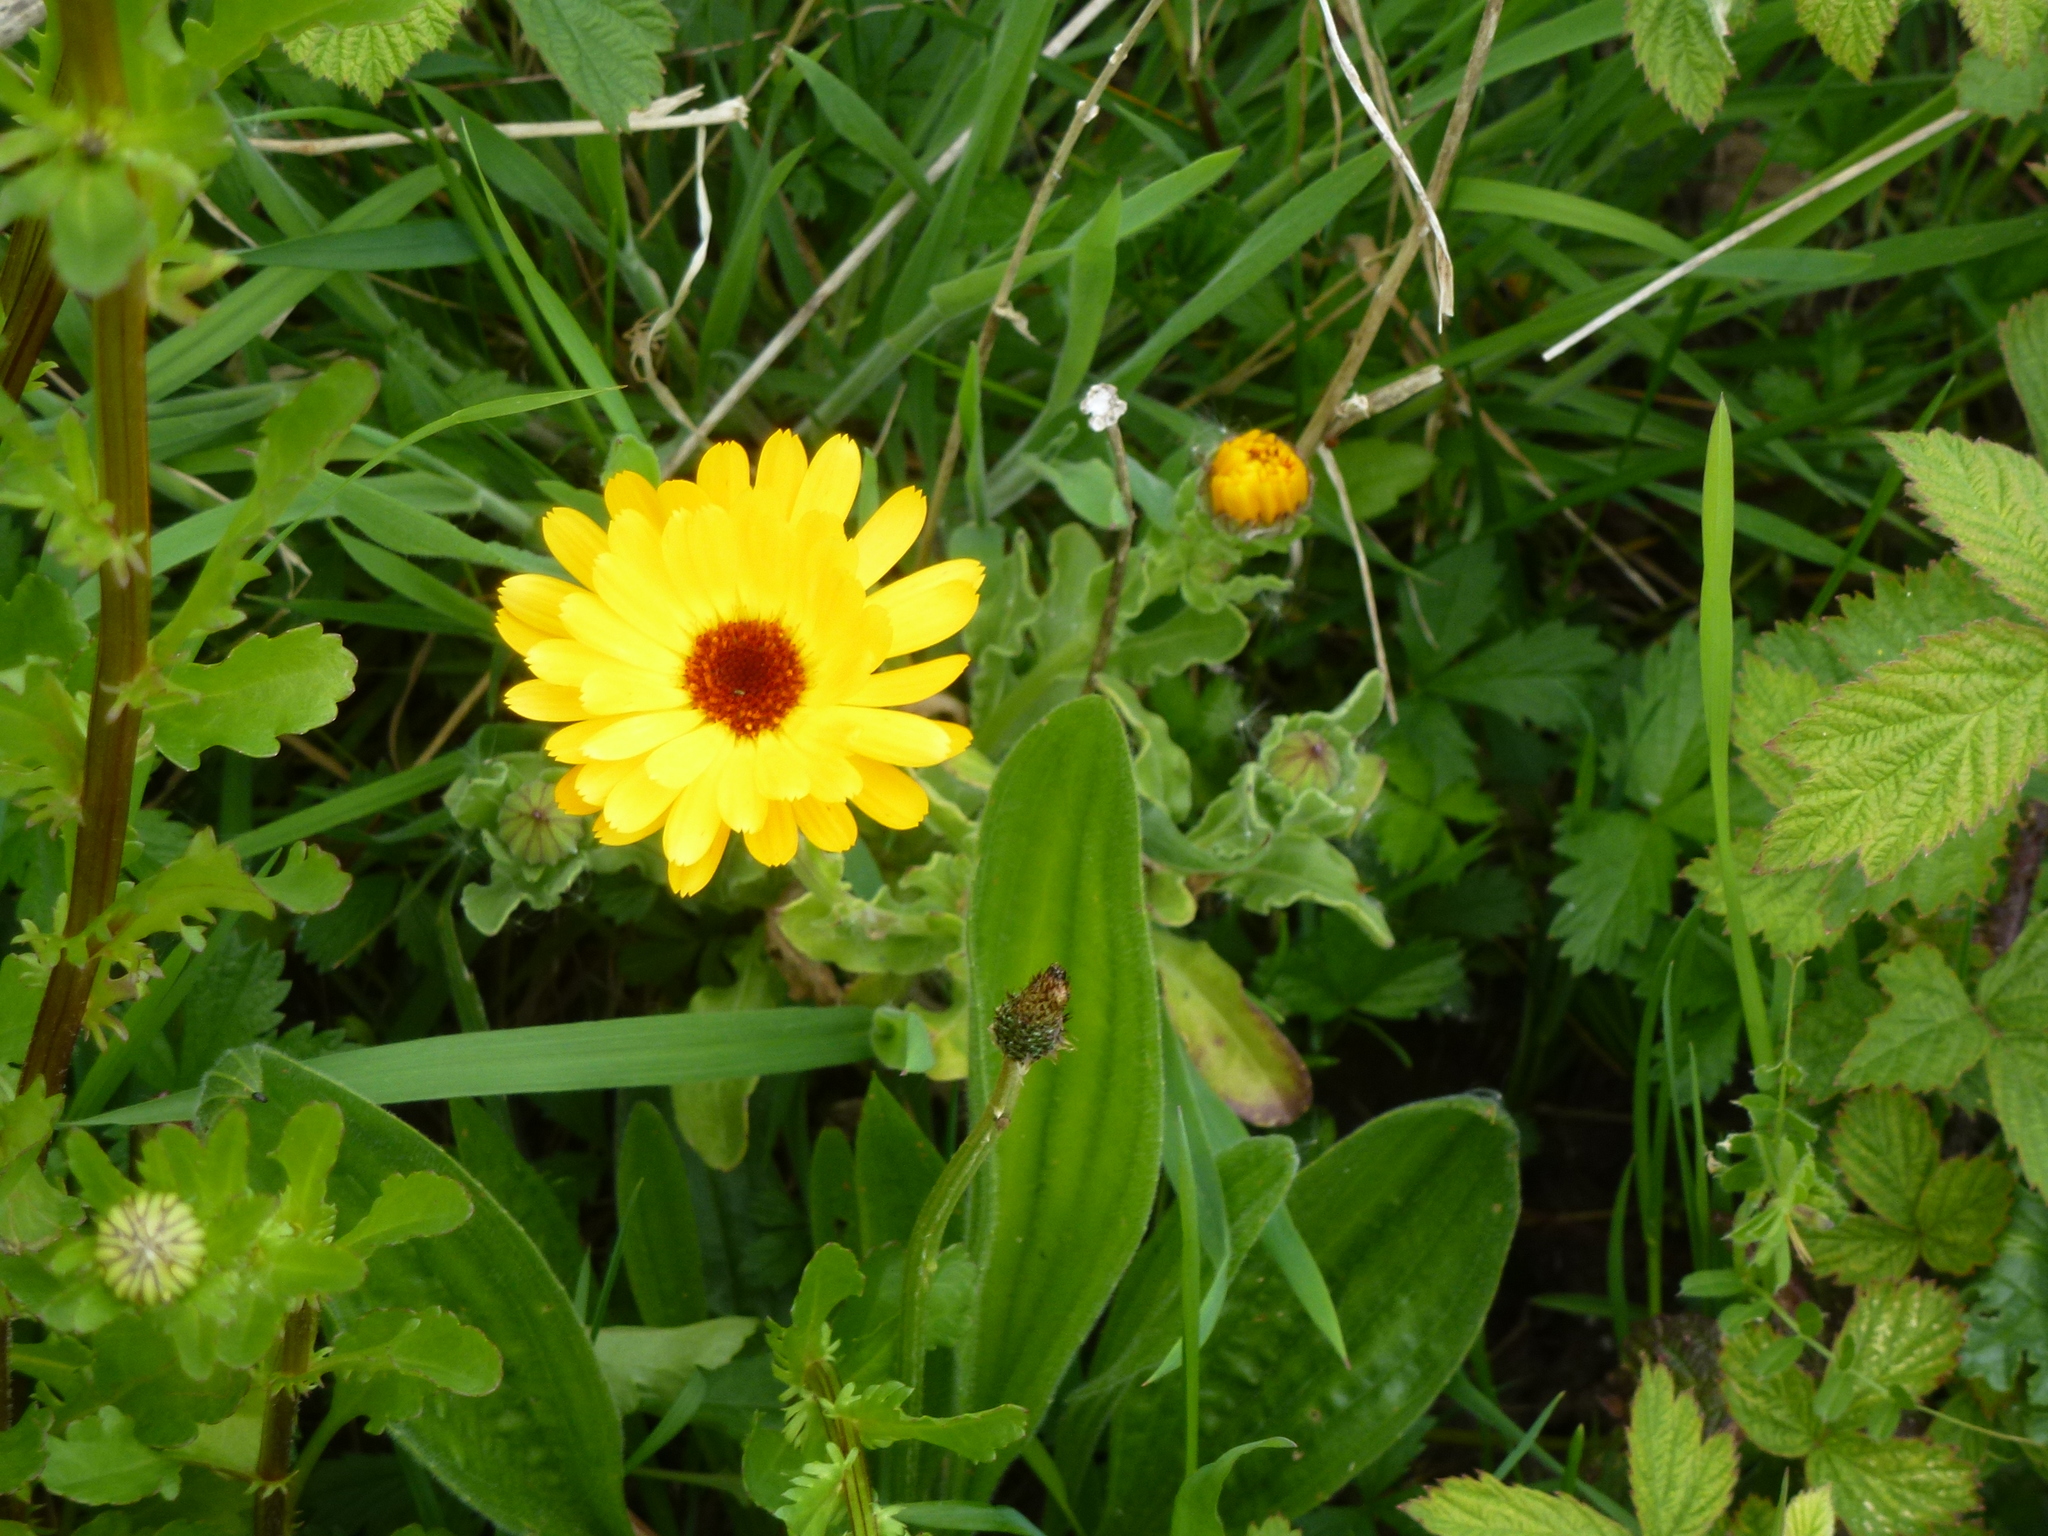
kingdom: Plantae
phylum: Tracheophyta
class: Magnoliopsida
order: Asterales
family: Asteraceae
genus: Calendula
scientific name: Calendula officinalis
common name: Pot marigold
